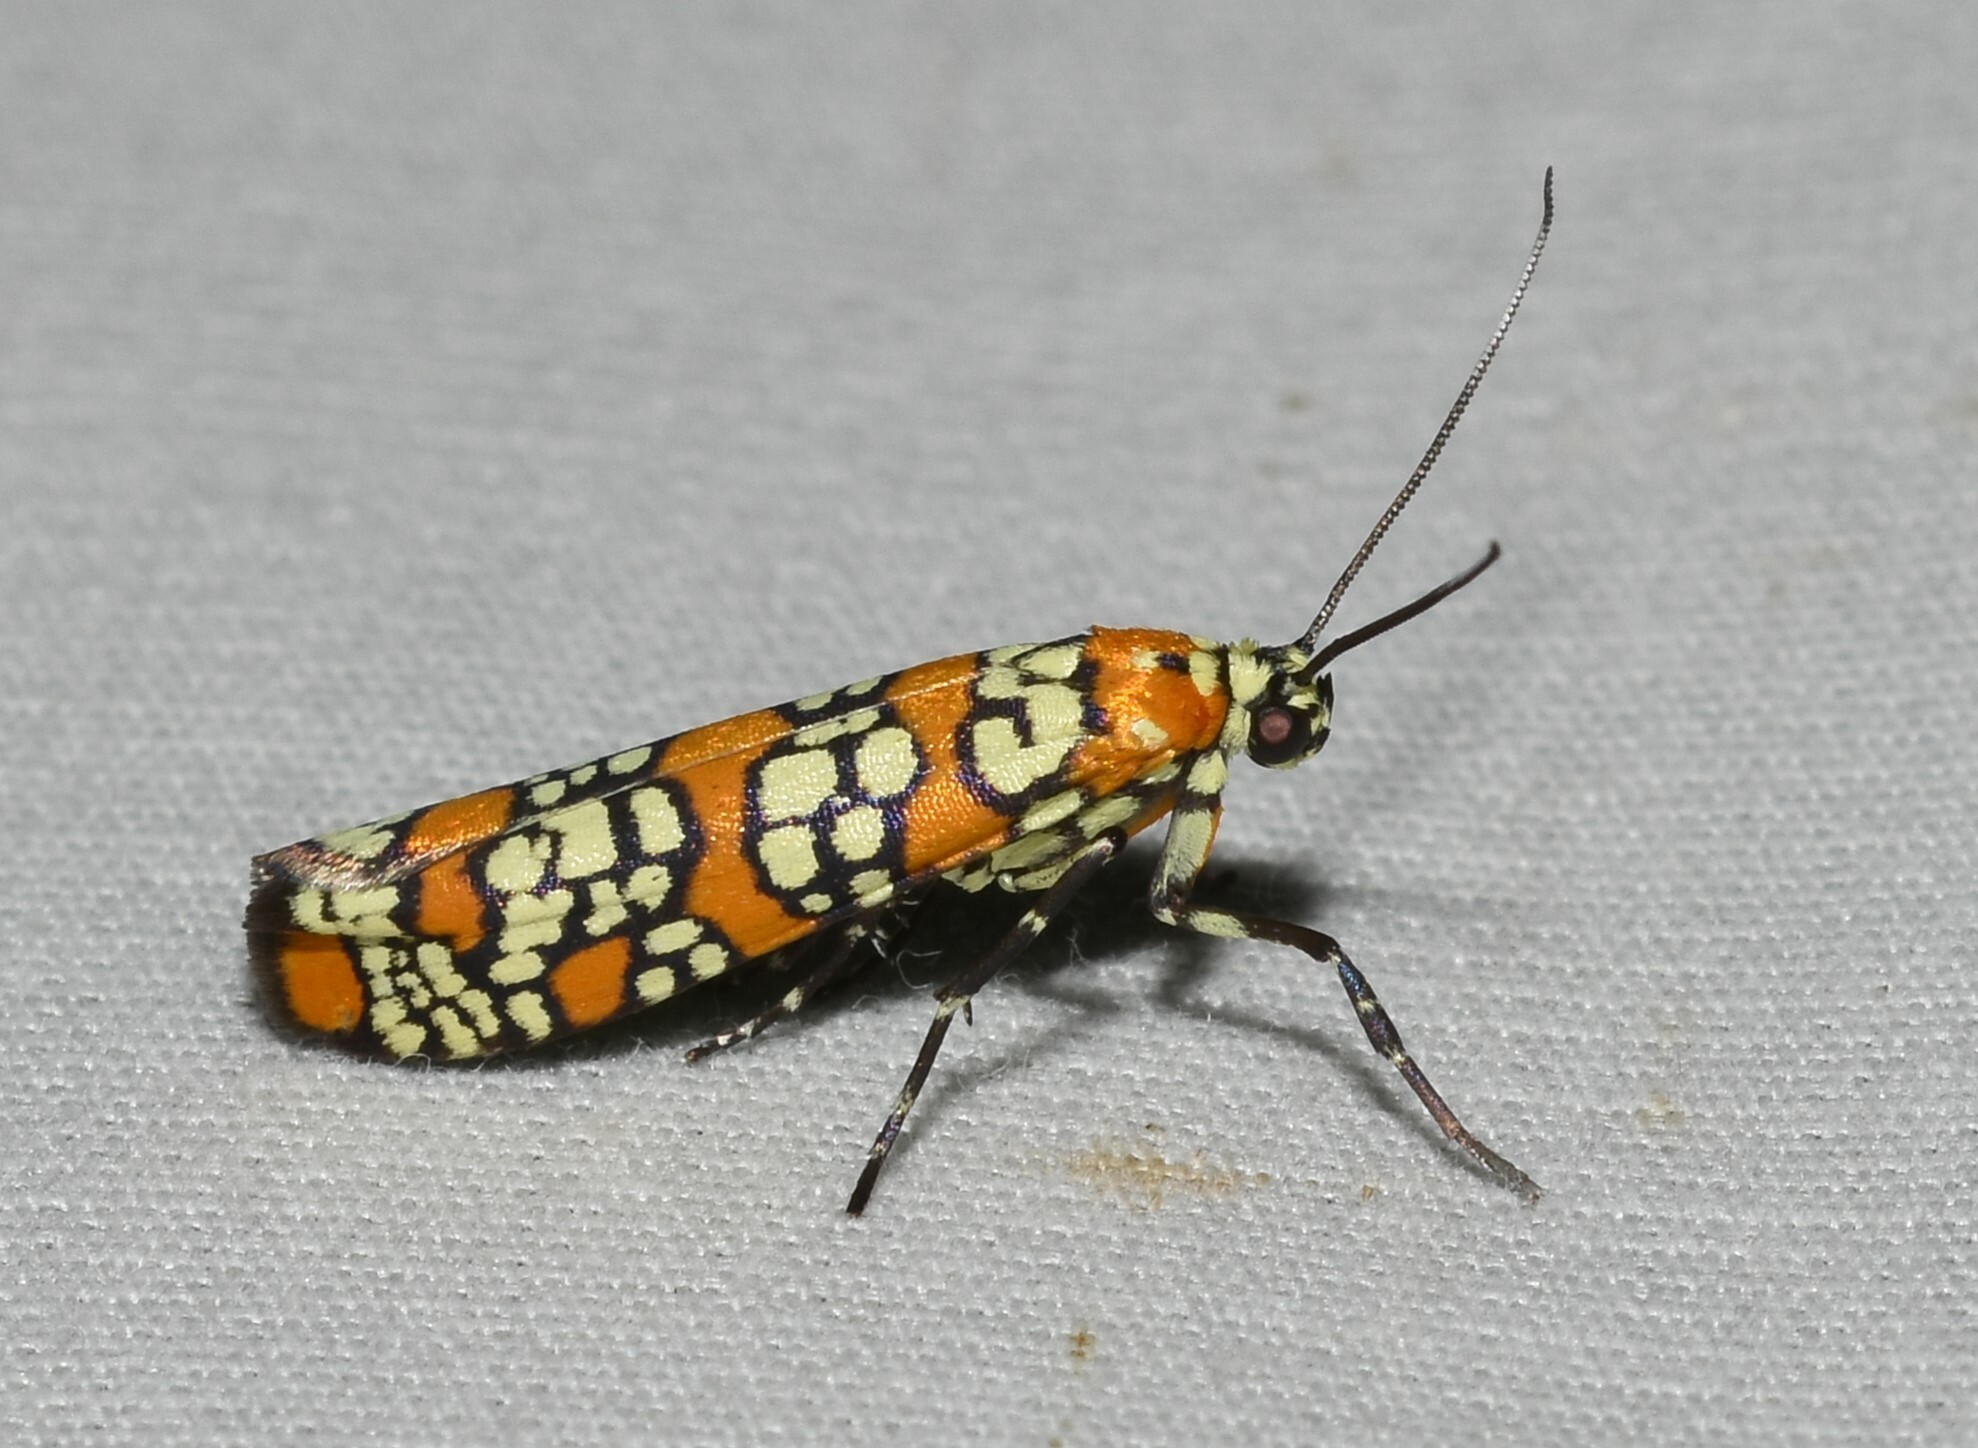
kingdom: Animalia
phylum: Arthropoda
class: Insecta
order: Lepidoptera
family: Attevidae
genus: Atteva
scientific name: Atteva punctella
